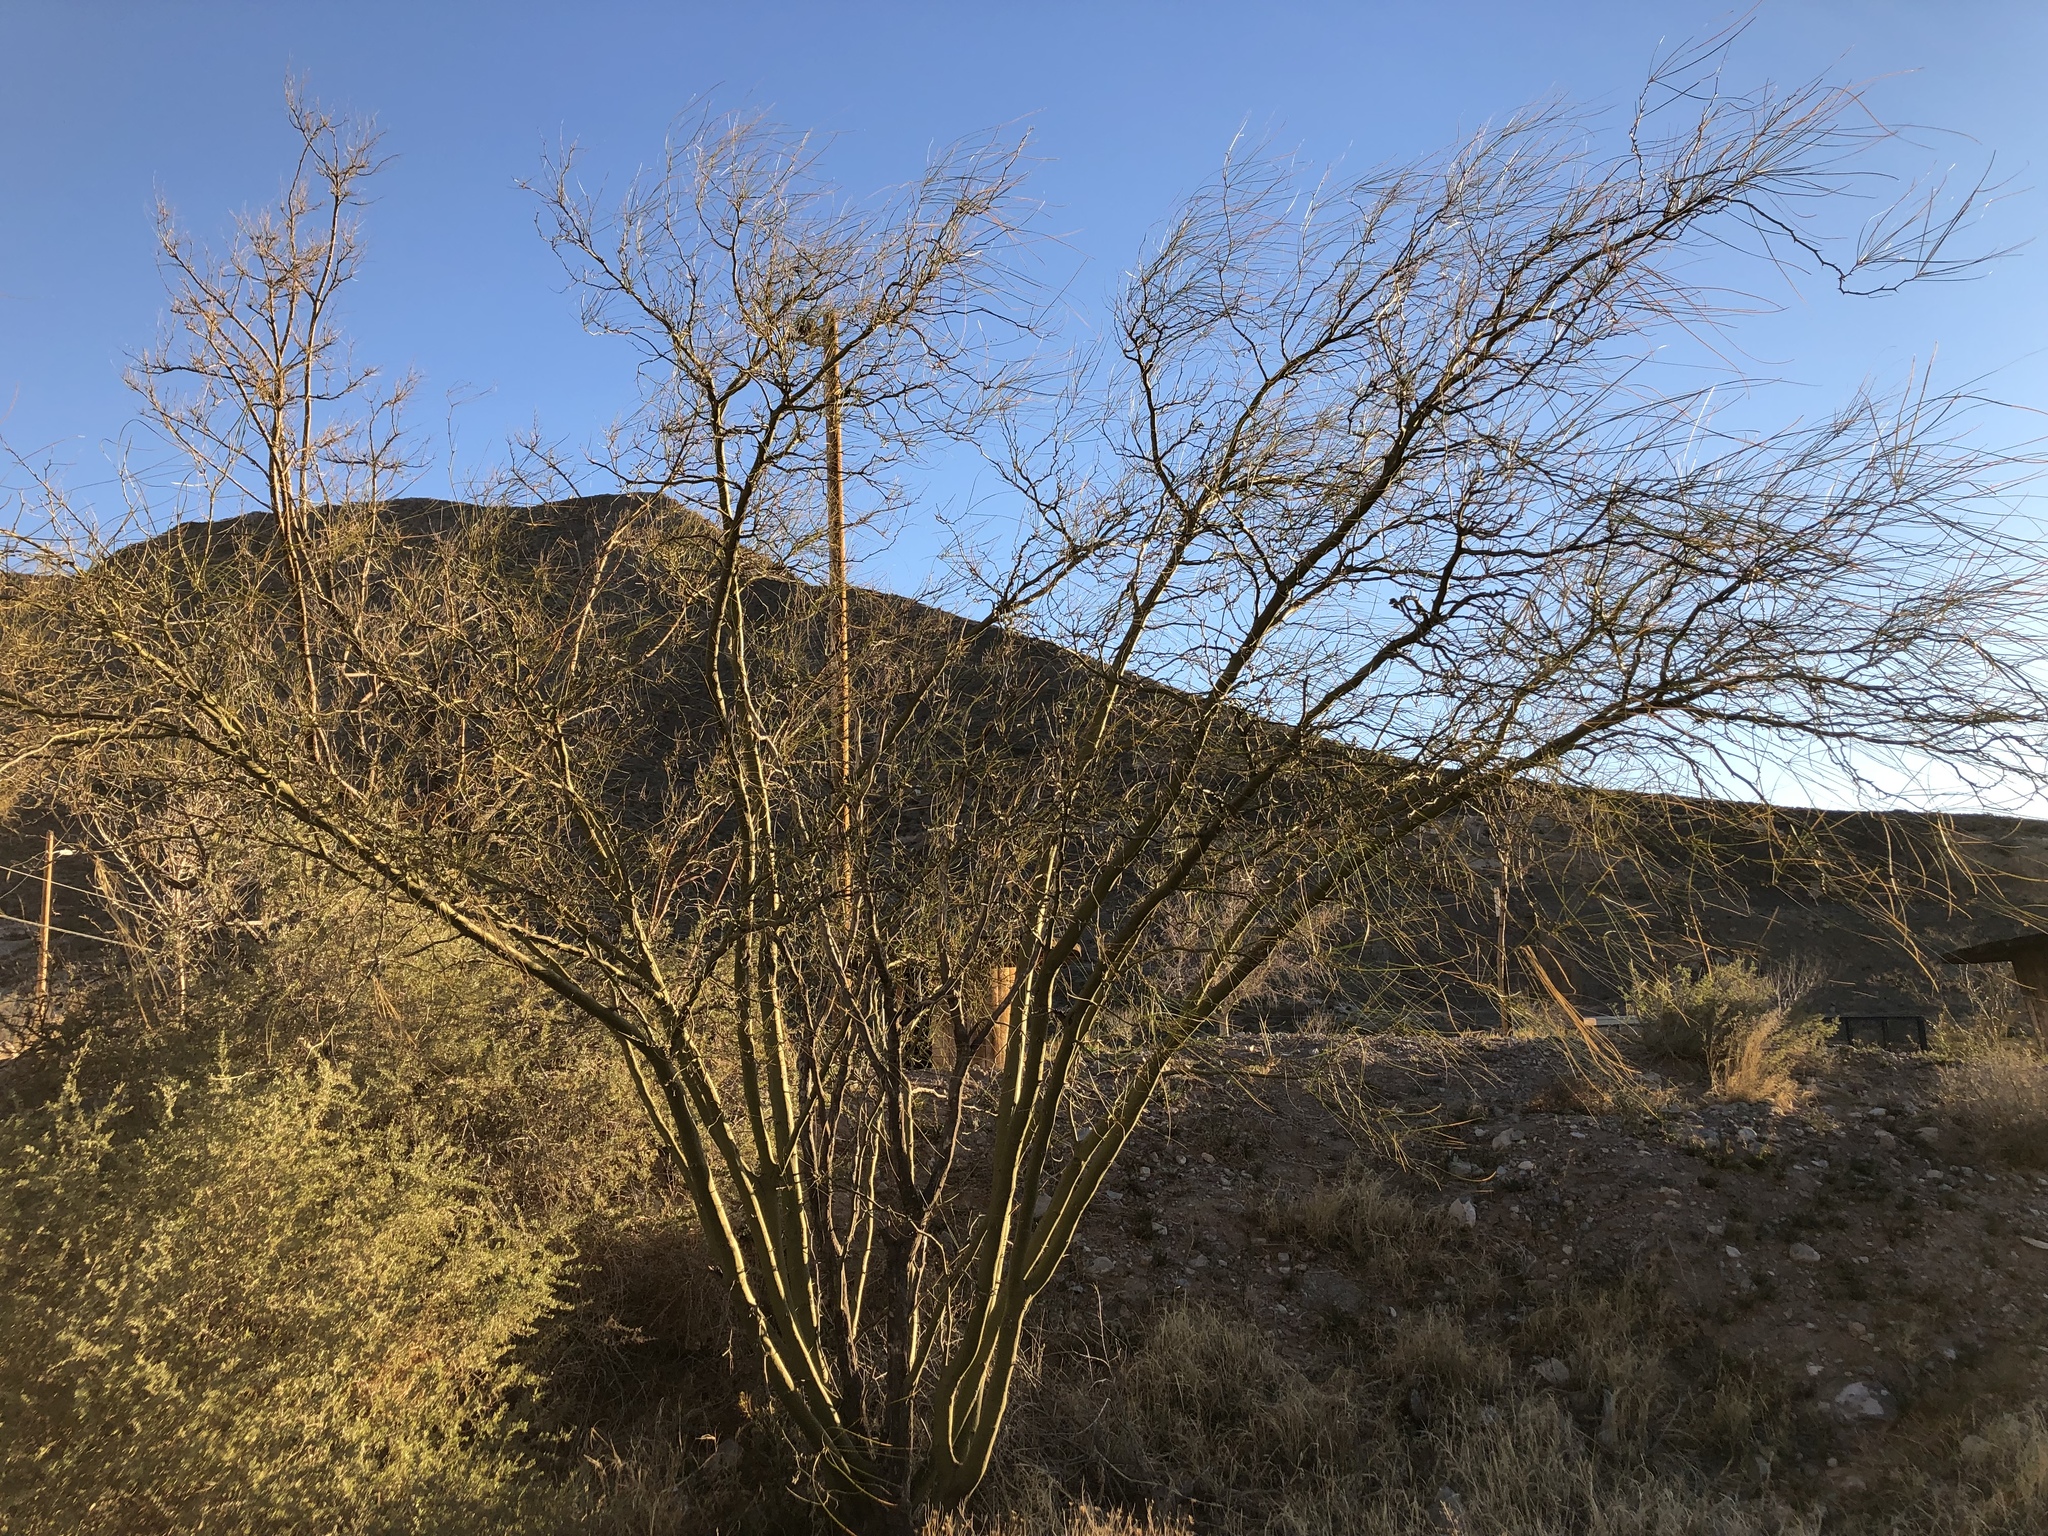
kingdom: Plantae
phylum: Tracheophyta
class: Magnoliopsida
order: Fabales
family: Fabaceae
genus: Parkinsonia
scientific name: Parkinsonia aculeata
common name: Jerusalem thorn
